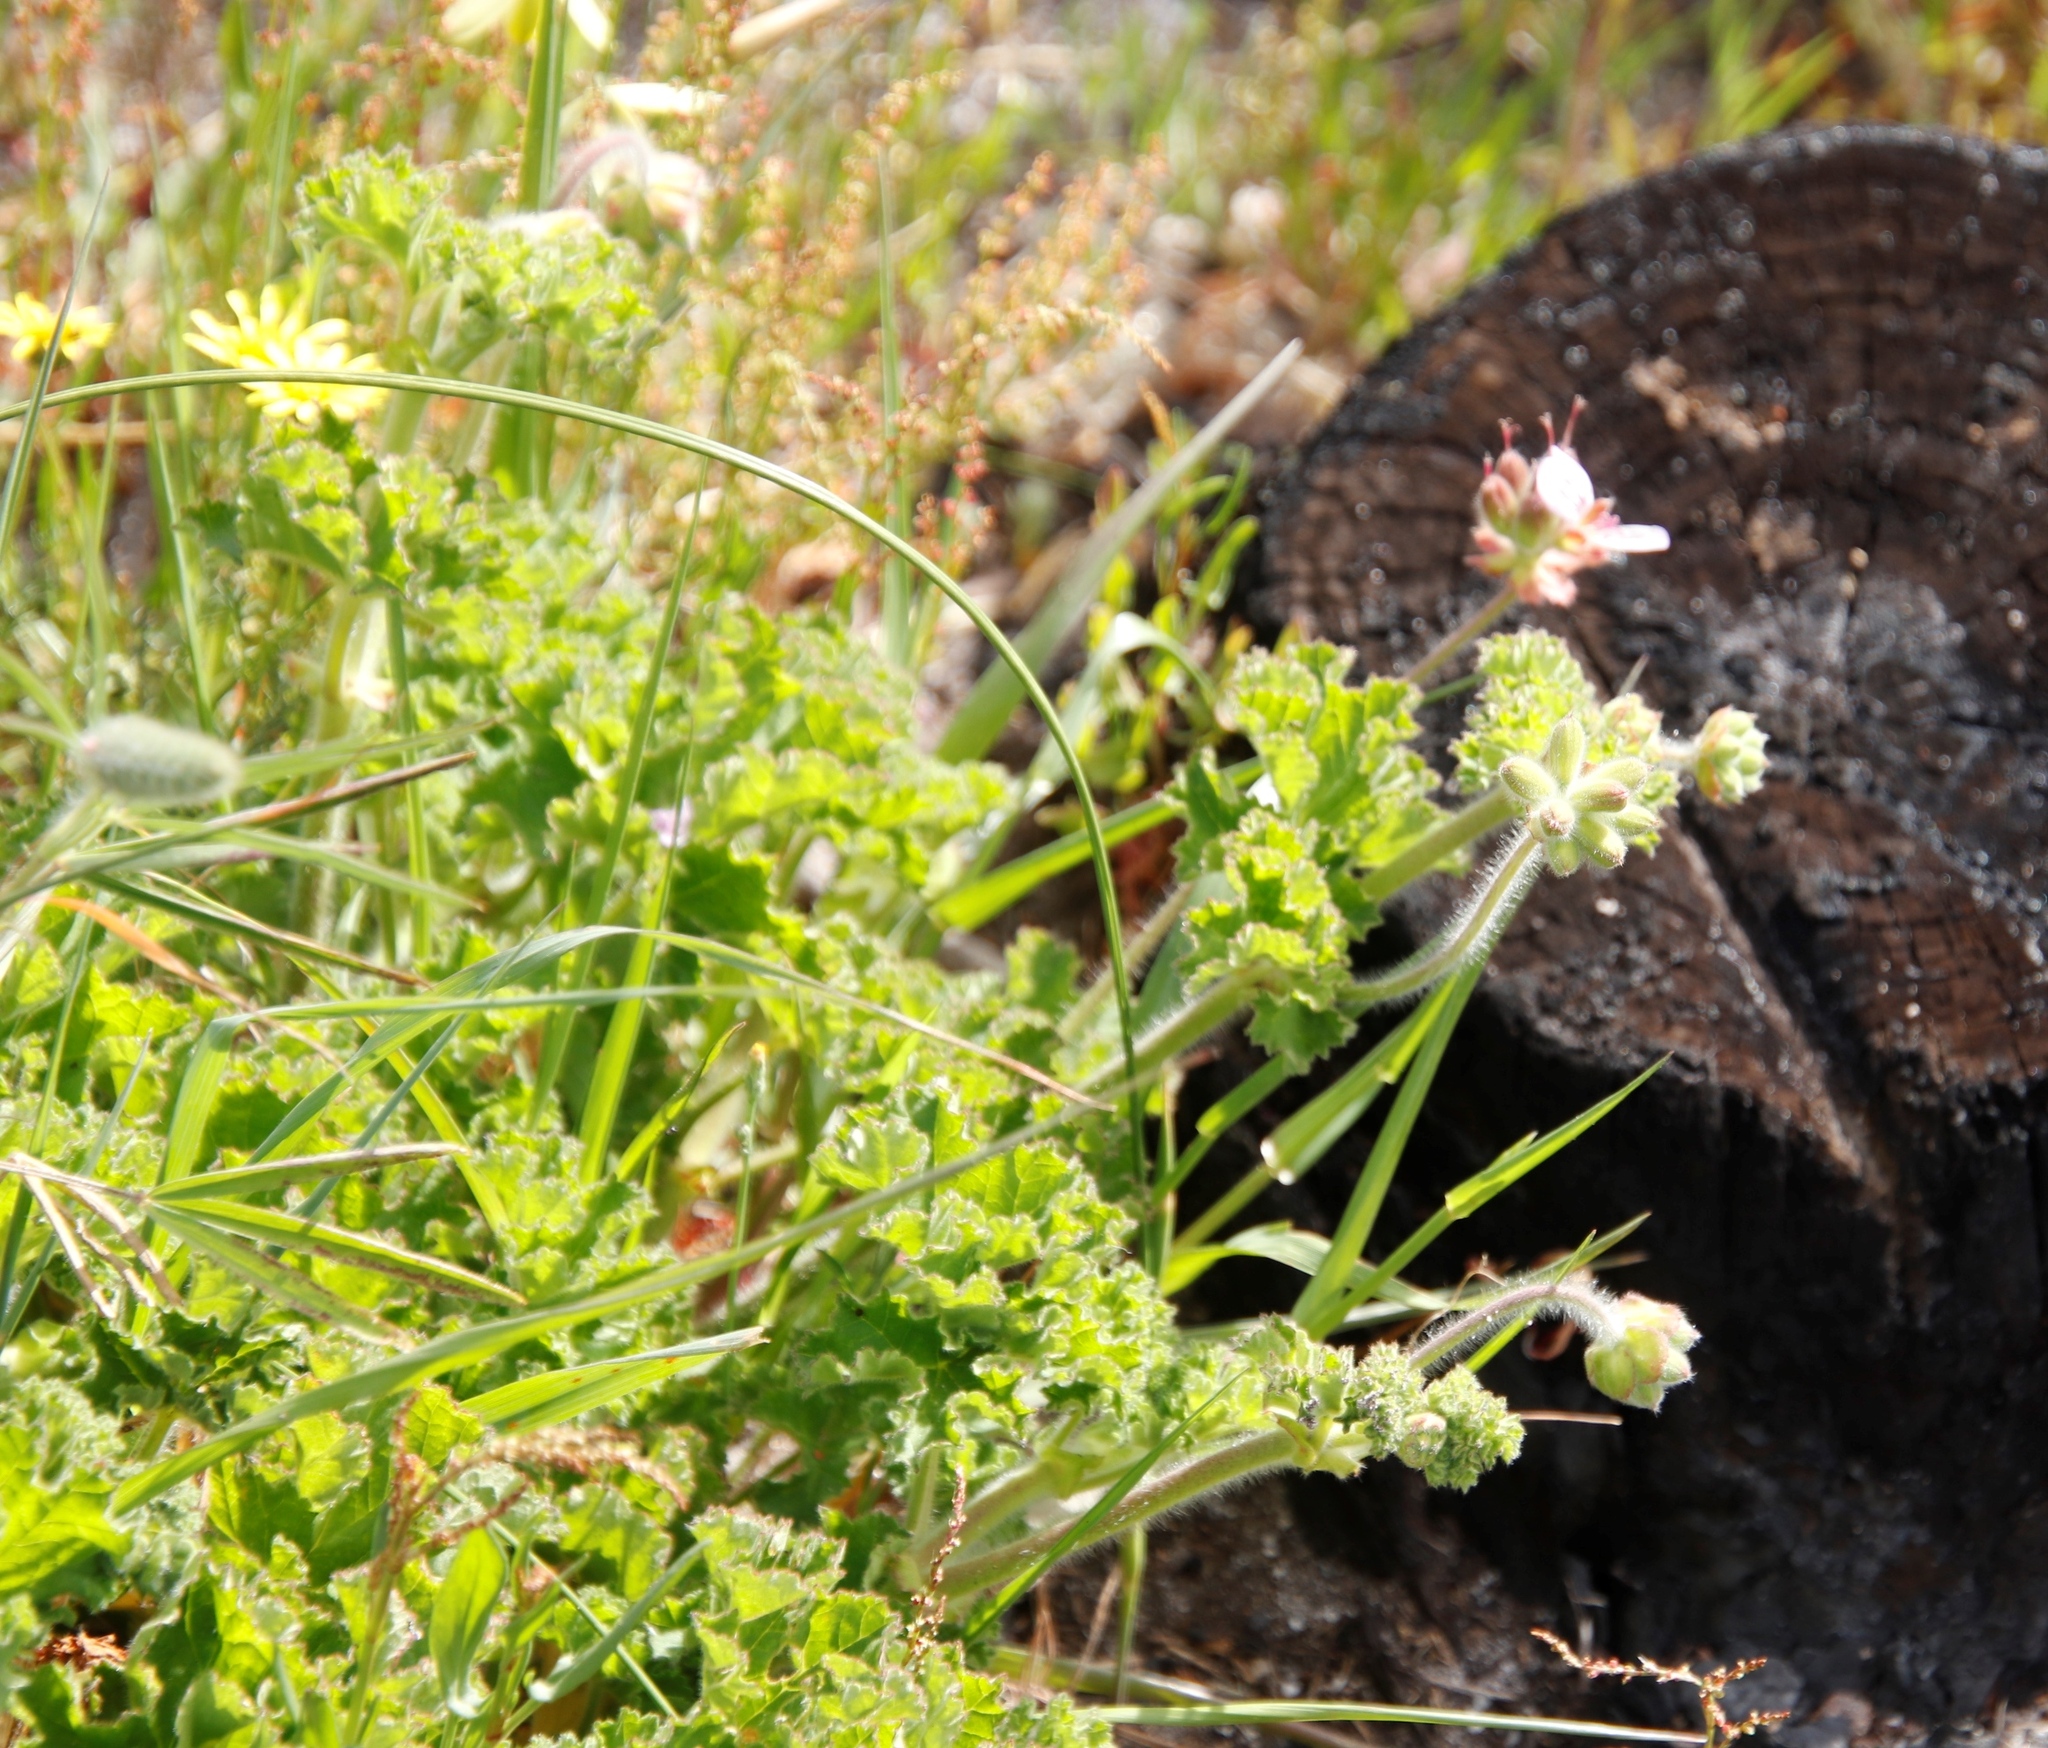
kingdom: Plantae
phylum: Tracheophyta
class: Magnoliopsida
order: Geraniales
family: Geraniaceae
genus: Pelargonium
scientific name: Pelargonium capitatum
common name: Rose scented geranium
